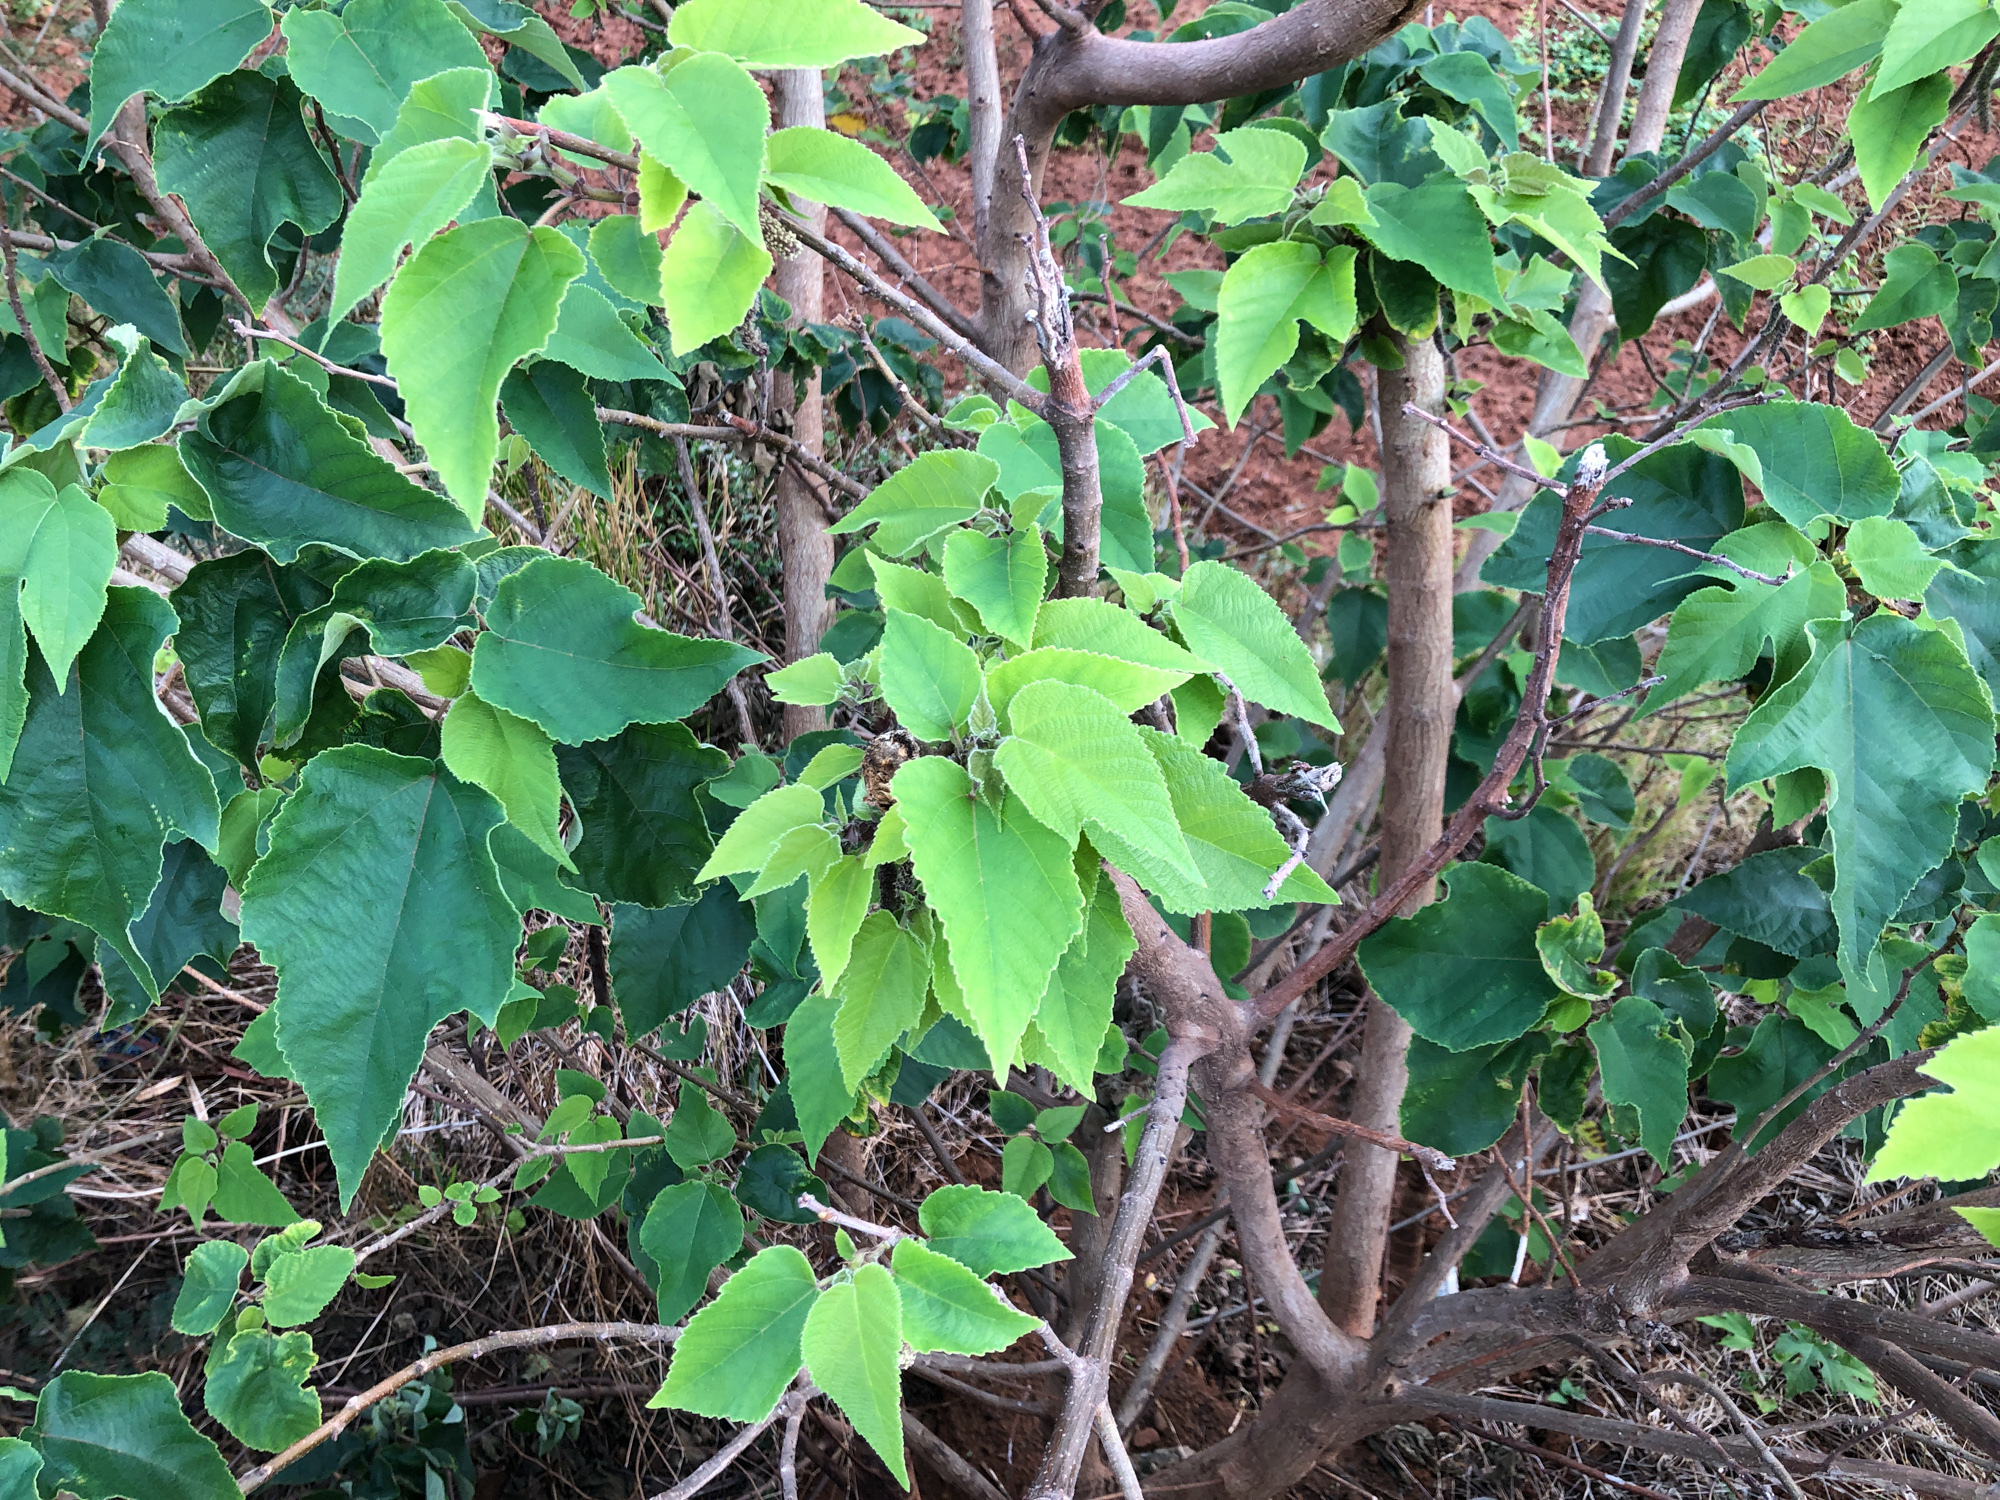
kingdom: Plantae
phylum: Tracheophyta
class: Magnoliopsida
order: Rosales
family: Moraceae
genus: Broussonetia
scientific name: Broussonetia papyrifera
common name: Paper mulberry
